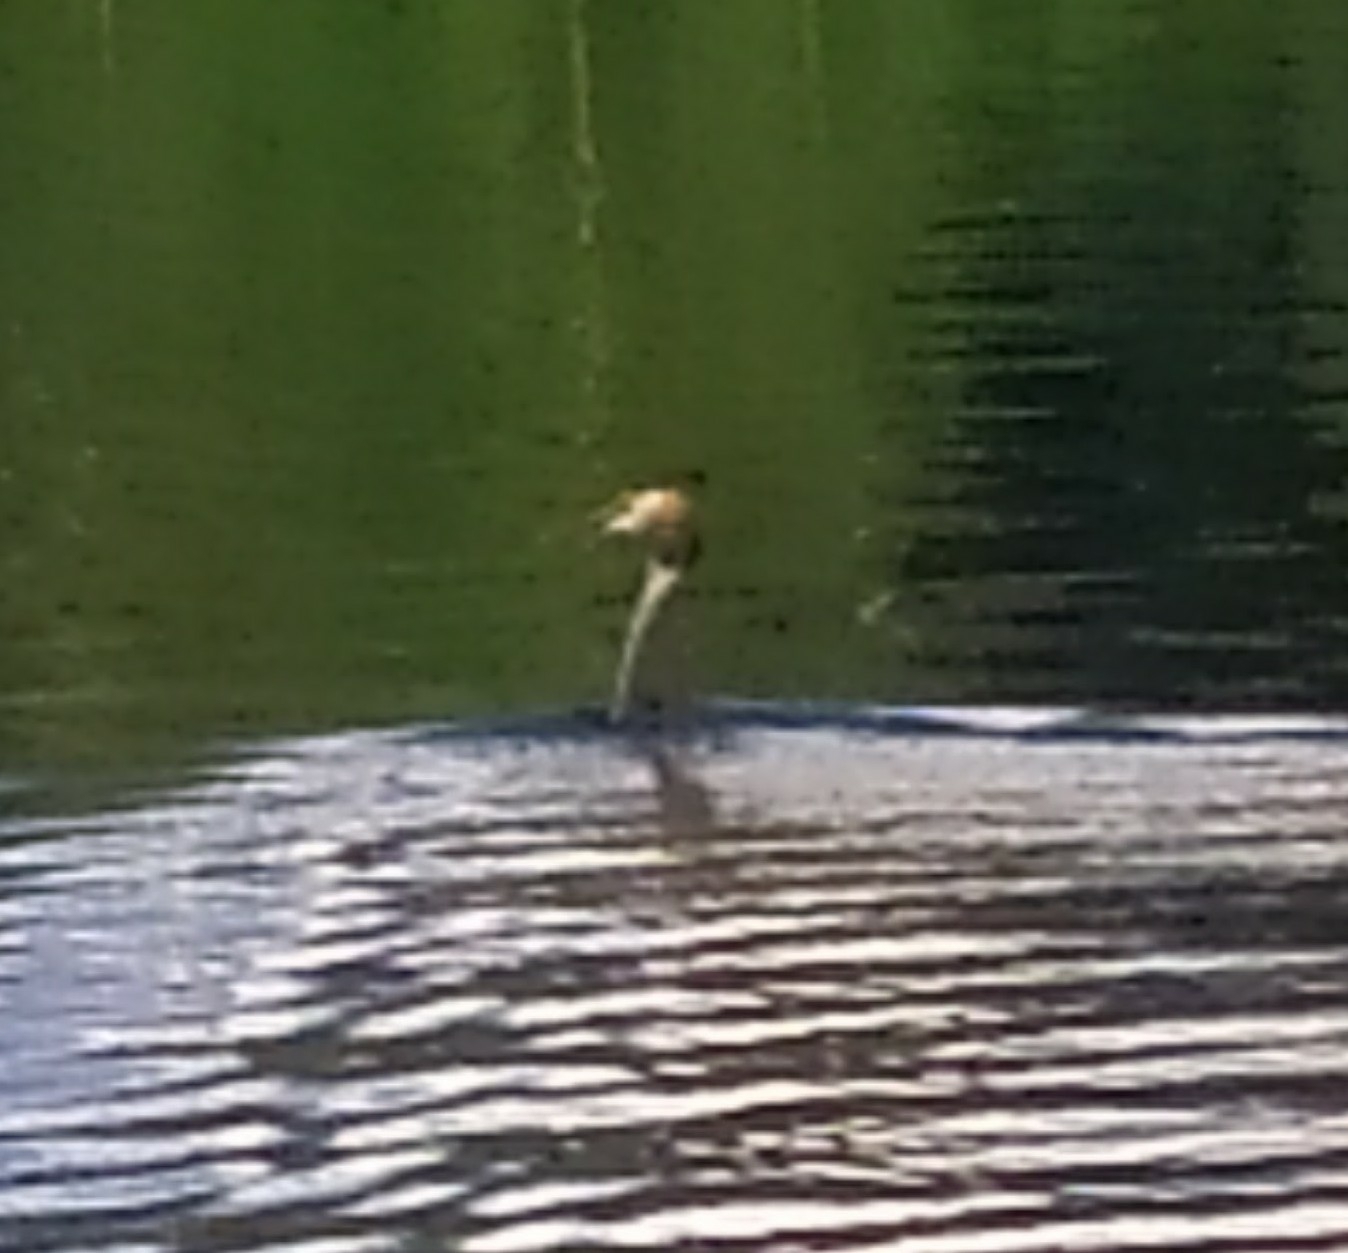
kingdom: Animalia
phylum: Chordata
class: Aves
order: Podicipediformes
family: Podicipedidae
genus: Podiceps
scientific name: Podiceps cristatus
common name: Great crested grebe
